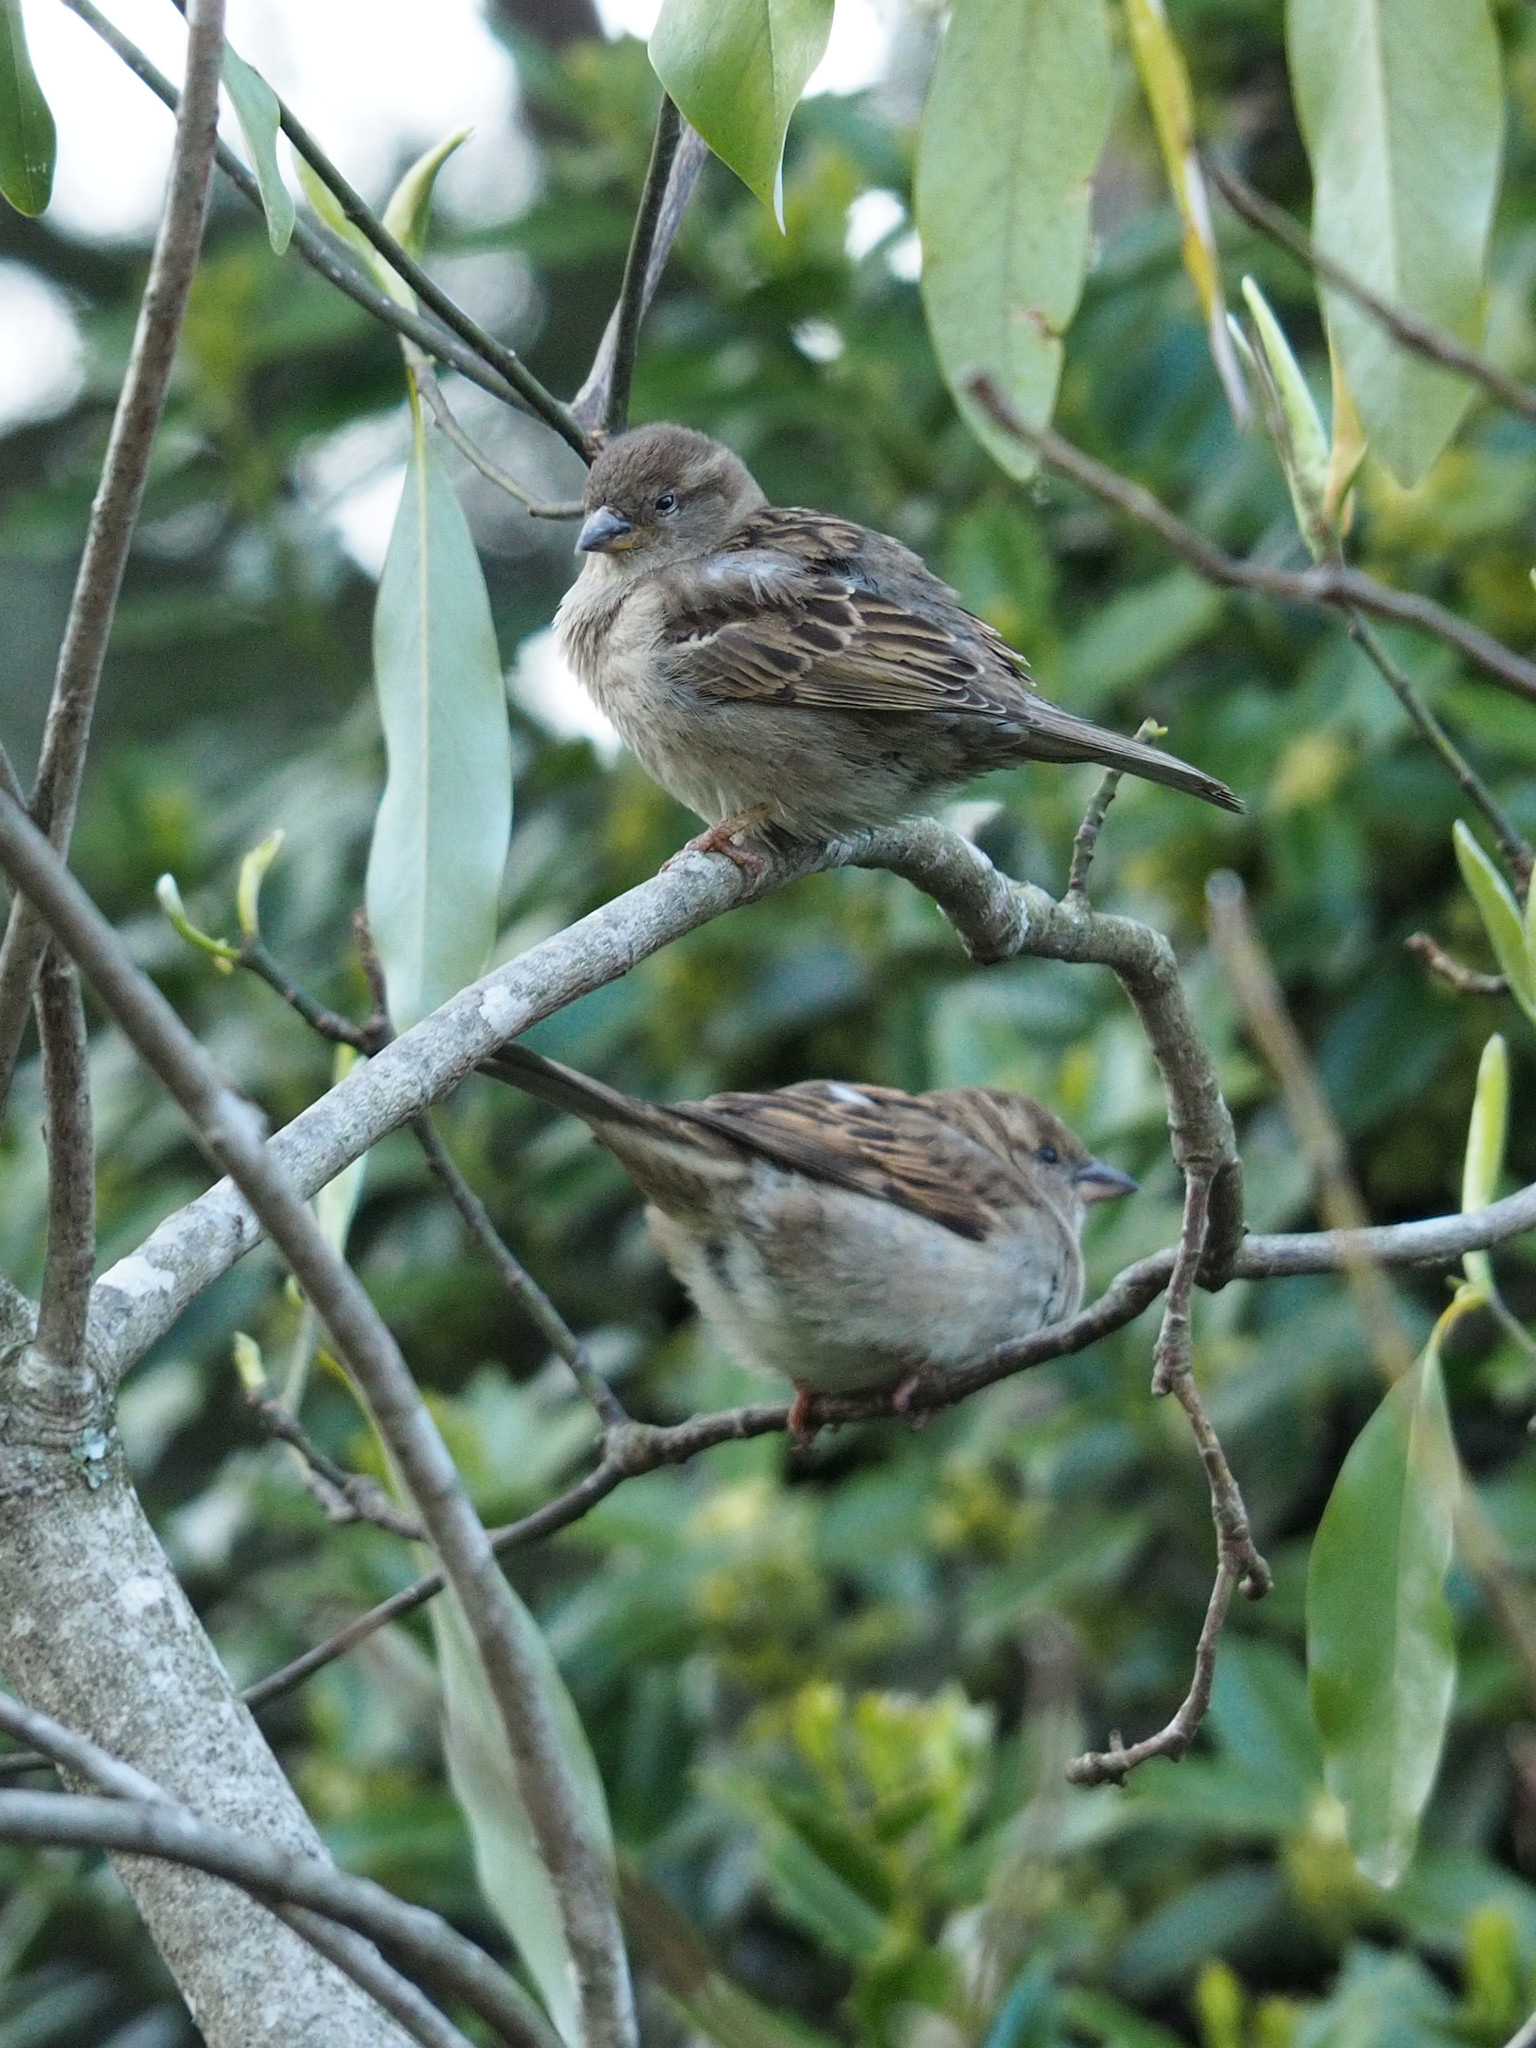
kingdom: Animalia
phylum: Chordata
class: Aves
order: Passeriformes
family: Passeridae
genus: Passer
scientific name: Passer domesticus
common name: House sparrow
